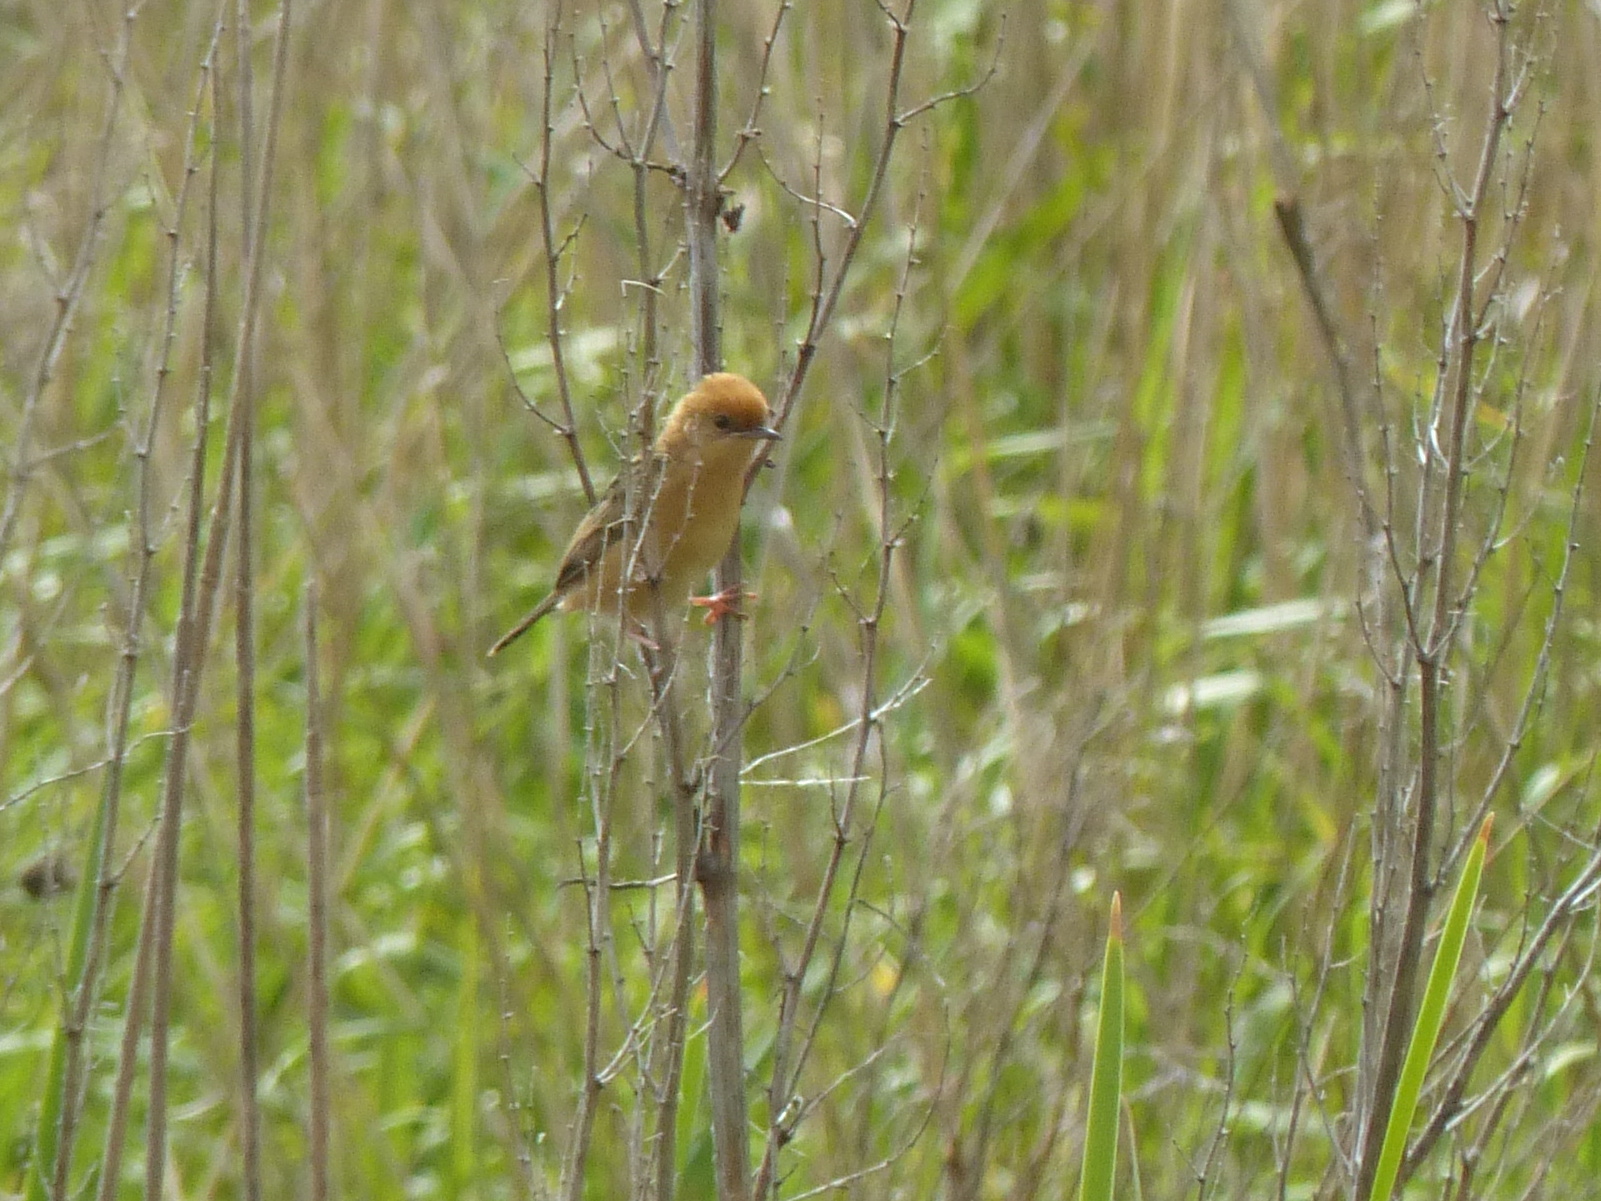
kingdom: Animalia
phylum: Chordata
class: Aves
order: Passeriformes
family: Cisticolidae
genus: Cisticola
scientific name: Cisticola exilis
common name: Golden-headed cisticola
